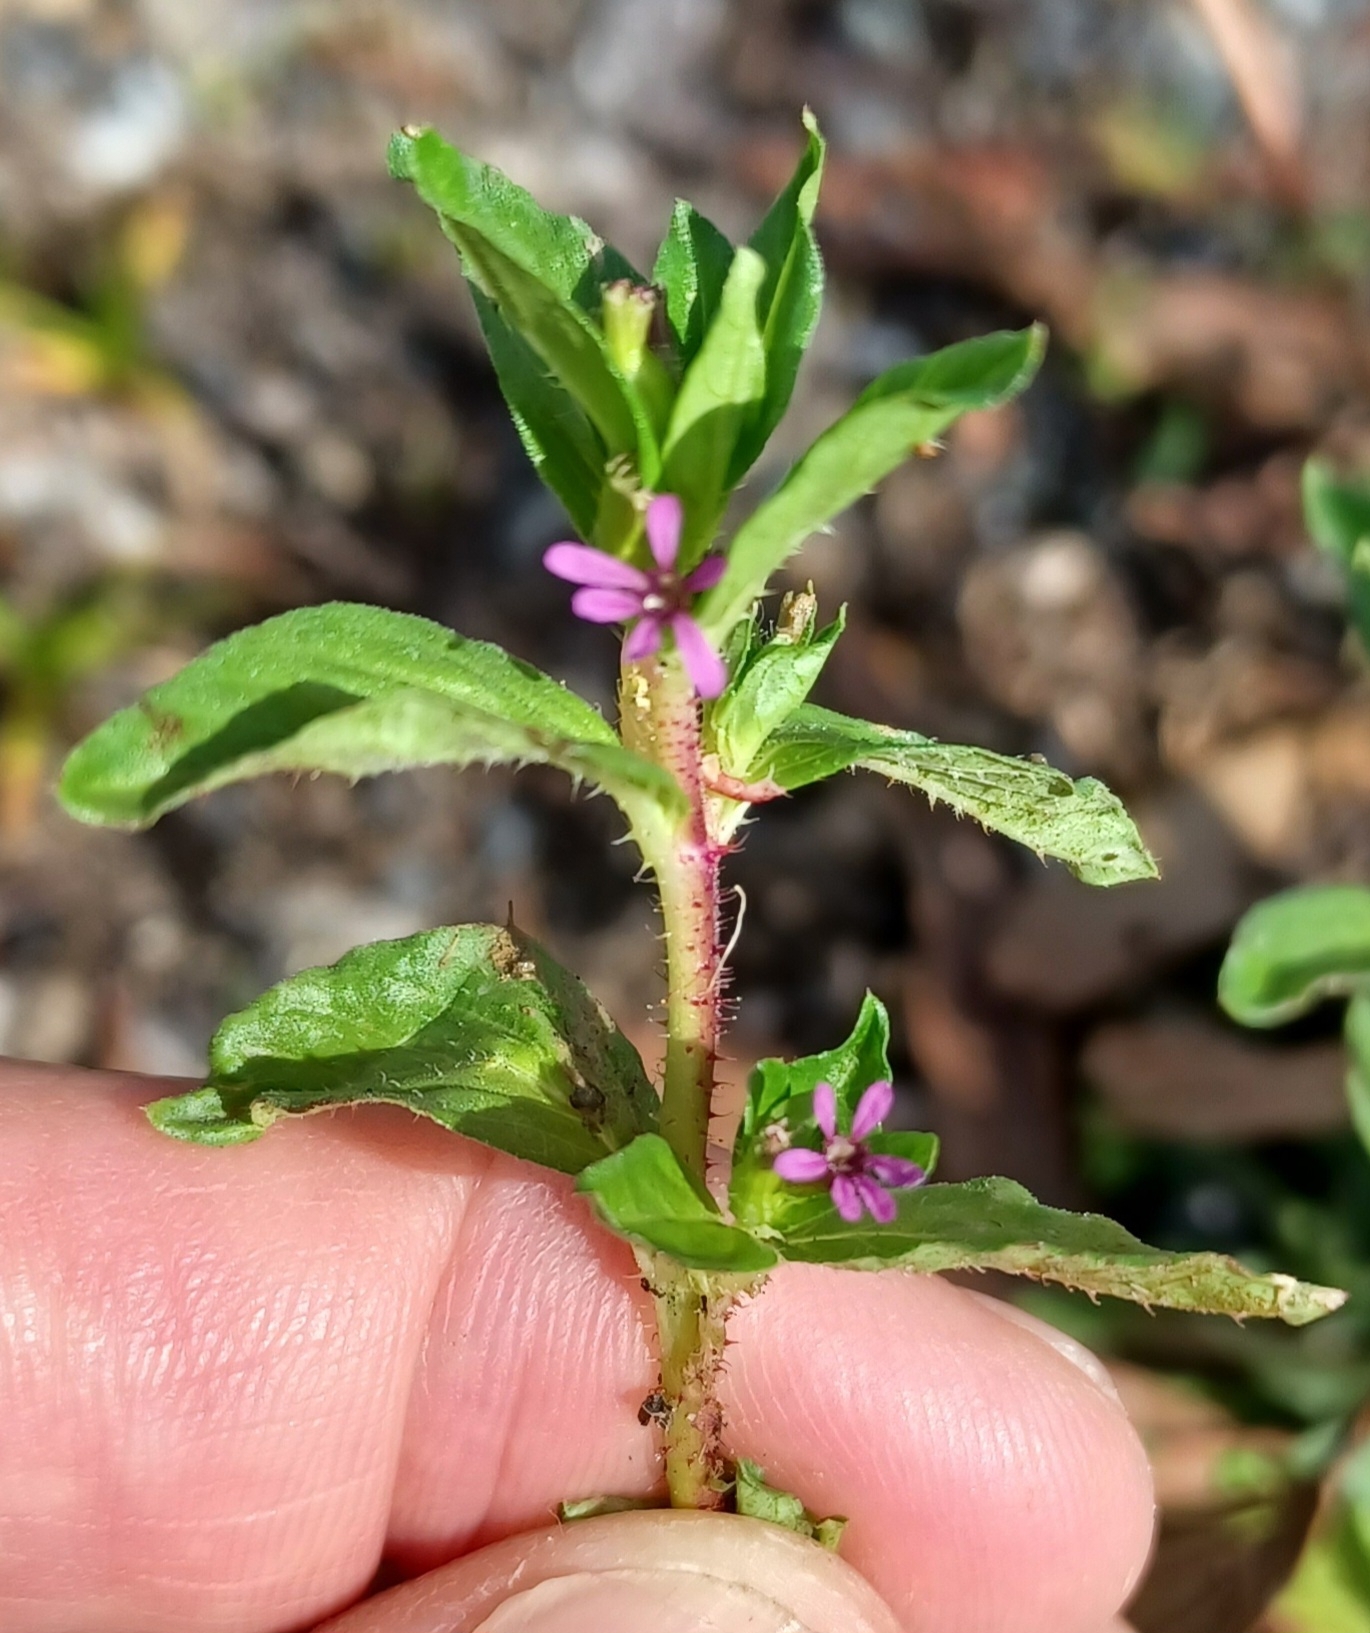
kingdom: Plantae
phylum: Tracheophyta
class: Magnoliopsida
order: Myrtales
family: Lythraceae
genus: Cuphea
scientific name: Cuphea carthagenensis
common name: Colombian waxweed
